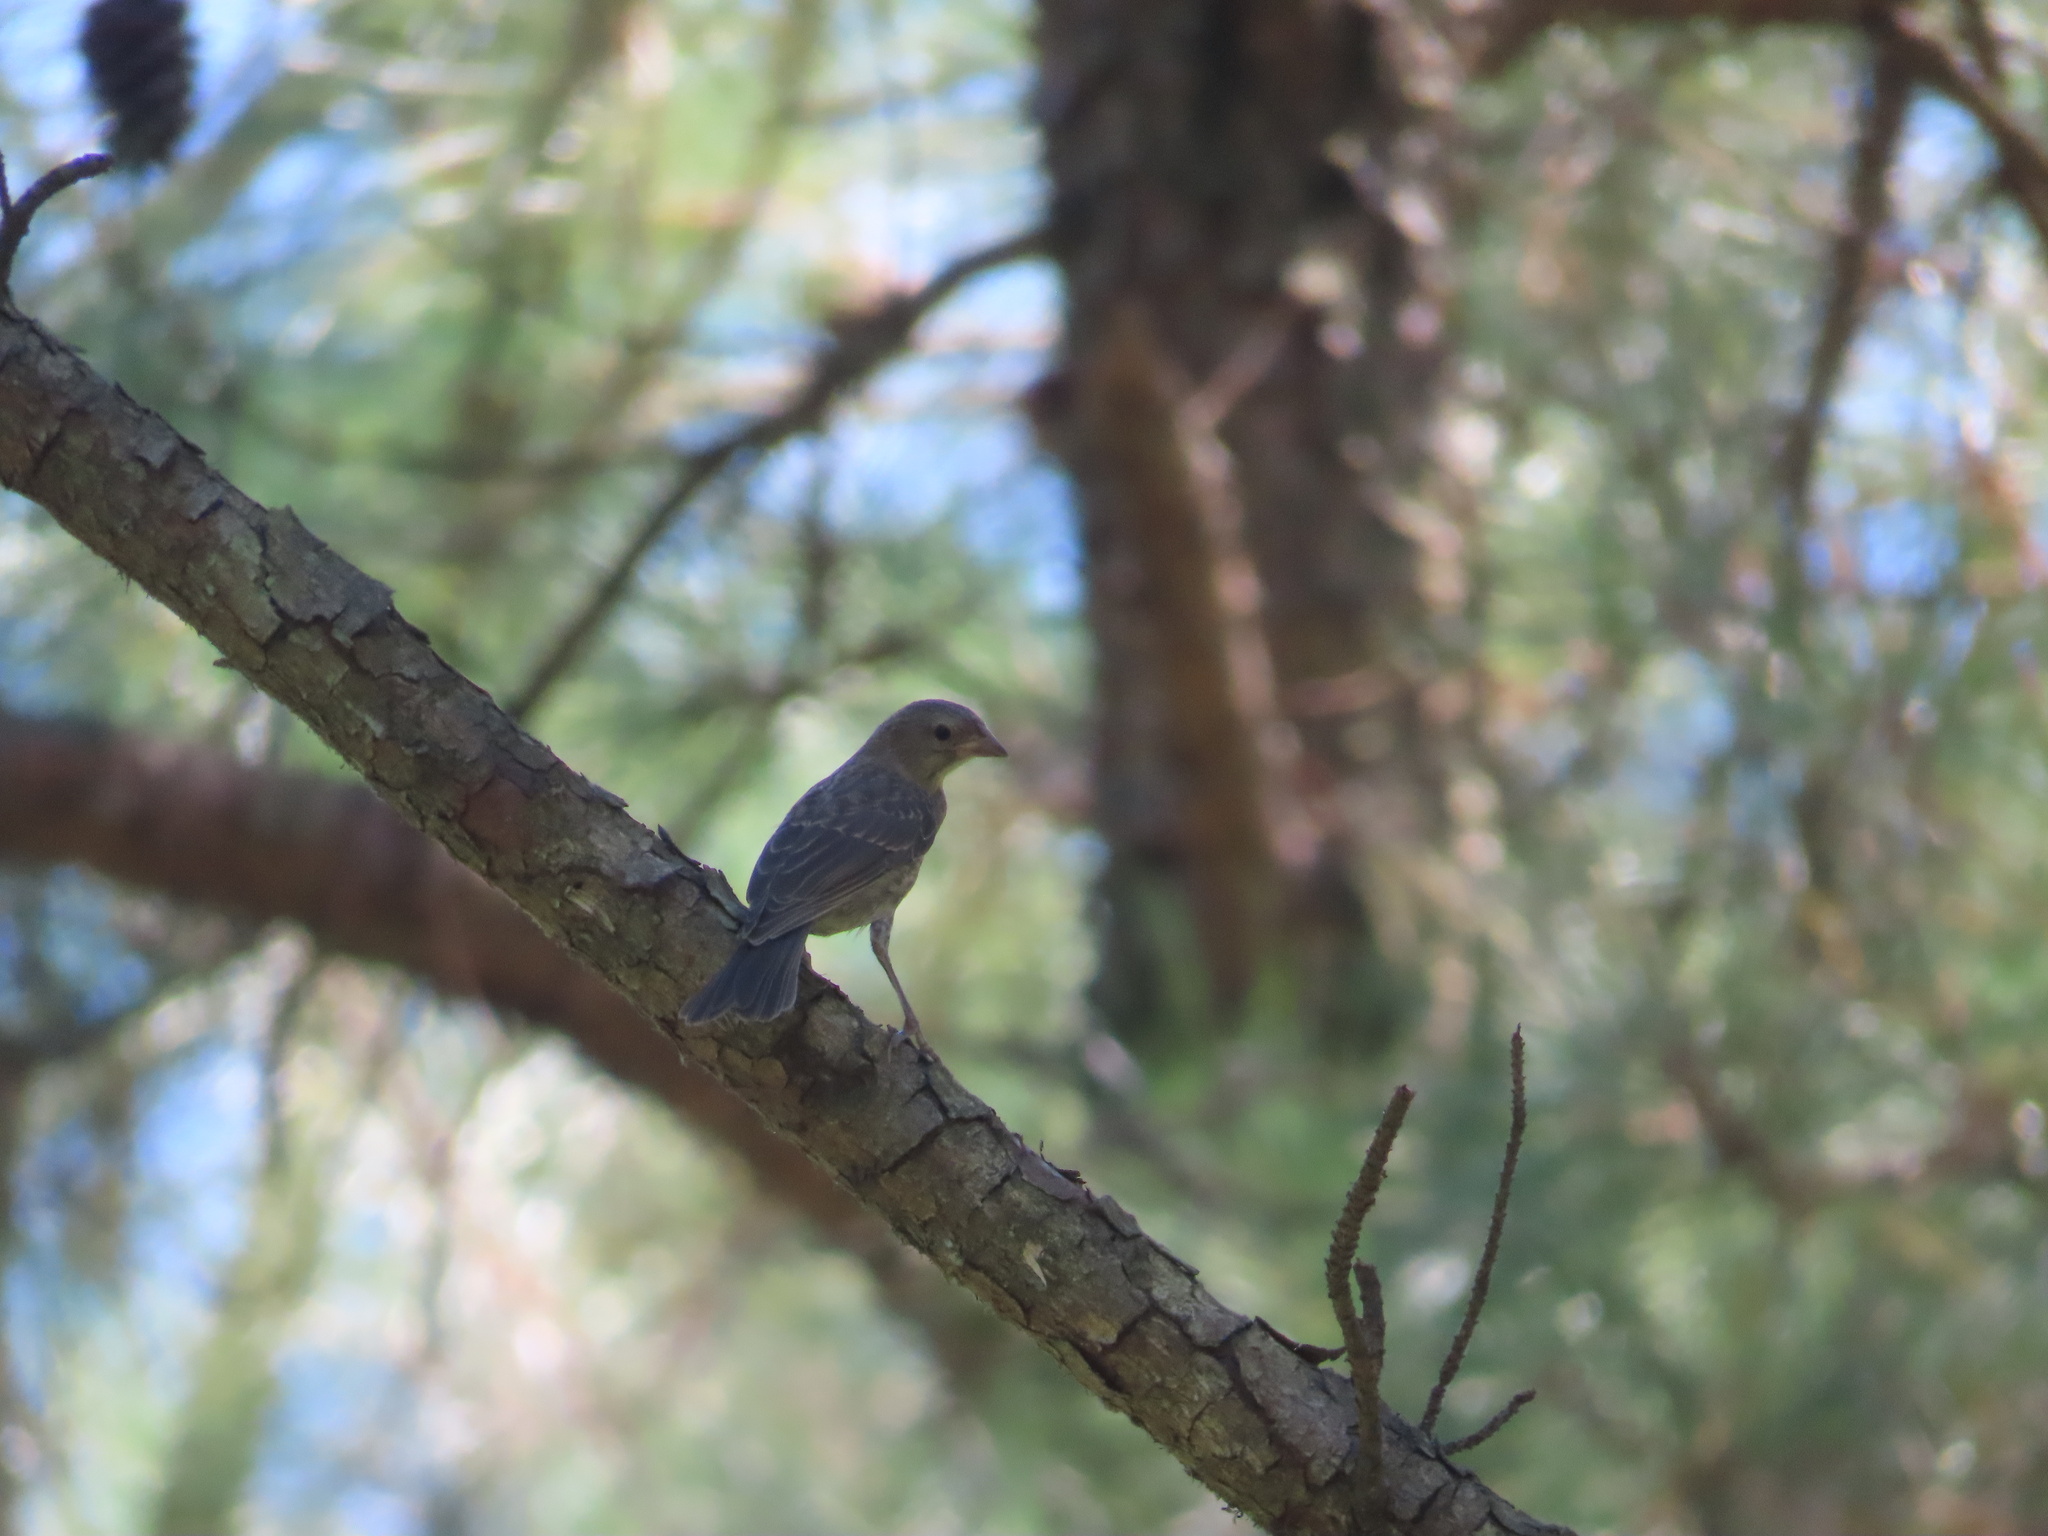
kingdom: Animalia
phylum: Chordata
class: Aves
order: Passeriformes
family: Icteridae
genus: Molothrus
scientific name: Molothrus ater
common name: Brown-headed cowbird
